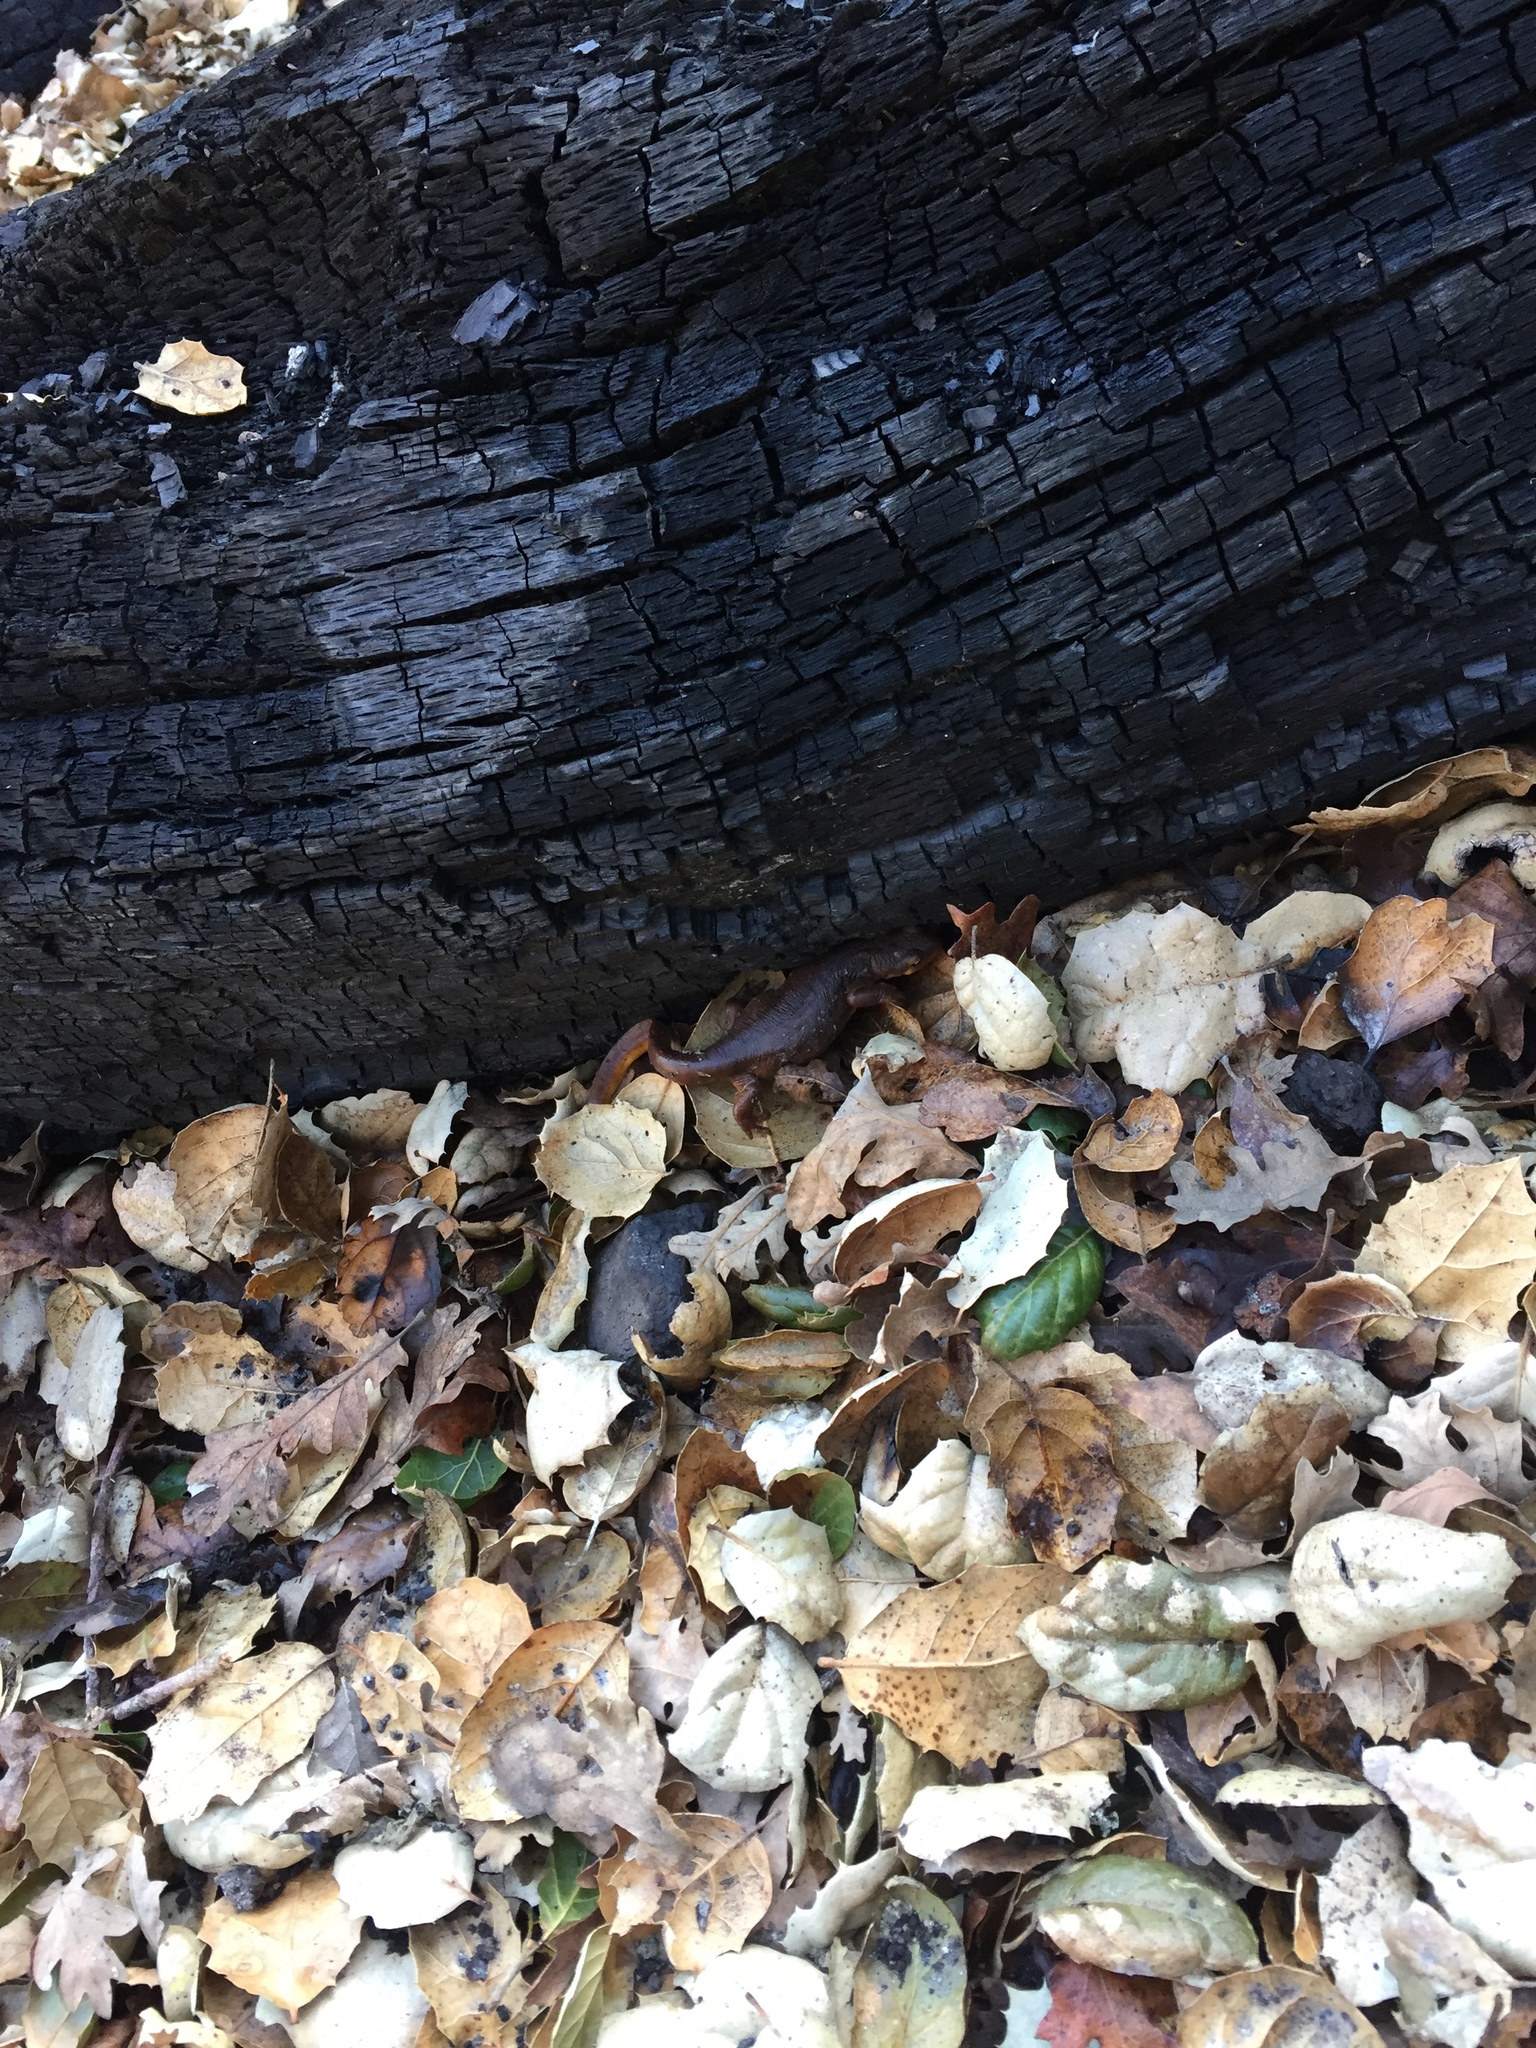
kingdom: Animalia
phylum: Chordata
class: Amphibia
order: Caudata
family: Salamandridae
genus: Taricha
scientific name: Taricha torosa
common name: California newt
